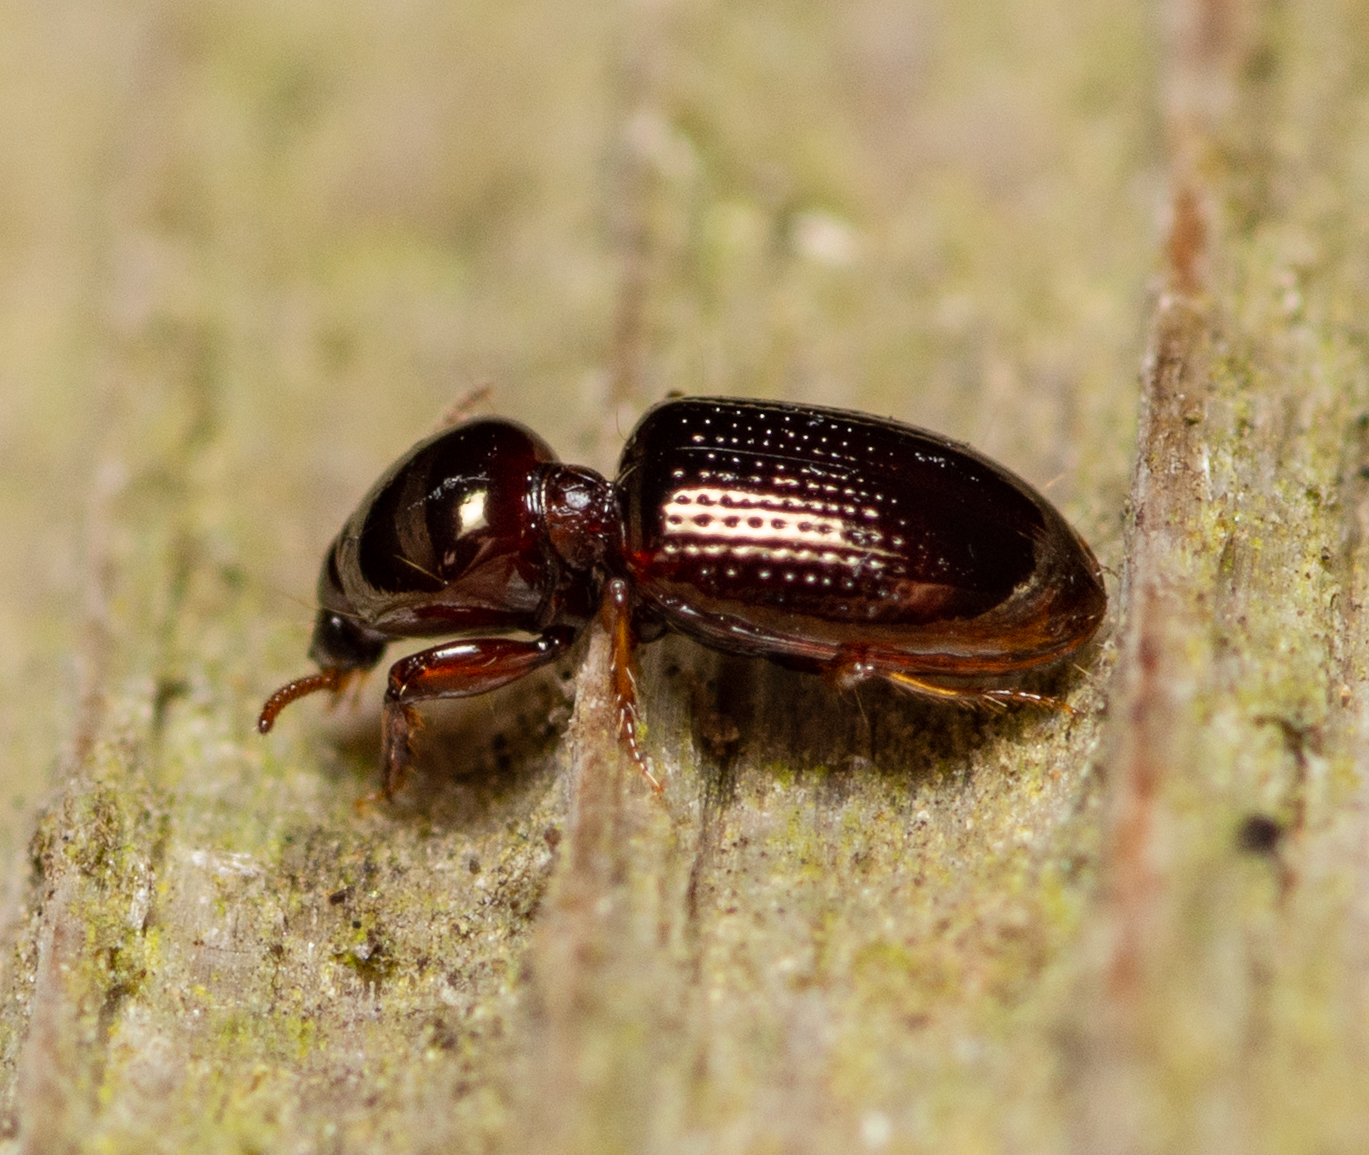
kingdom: Animalia
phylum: Arthropoda
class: Insecta
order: Coleoptera
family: Carabidae
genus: Dyschirius
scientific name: Dyschirius abbreviatus
